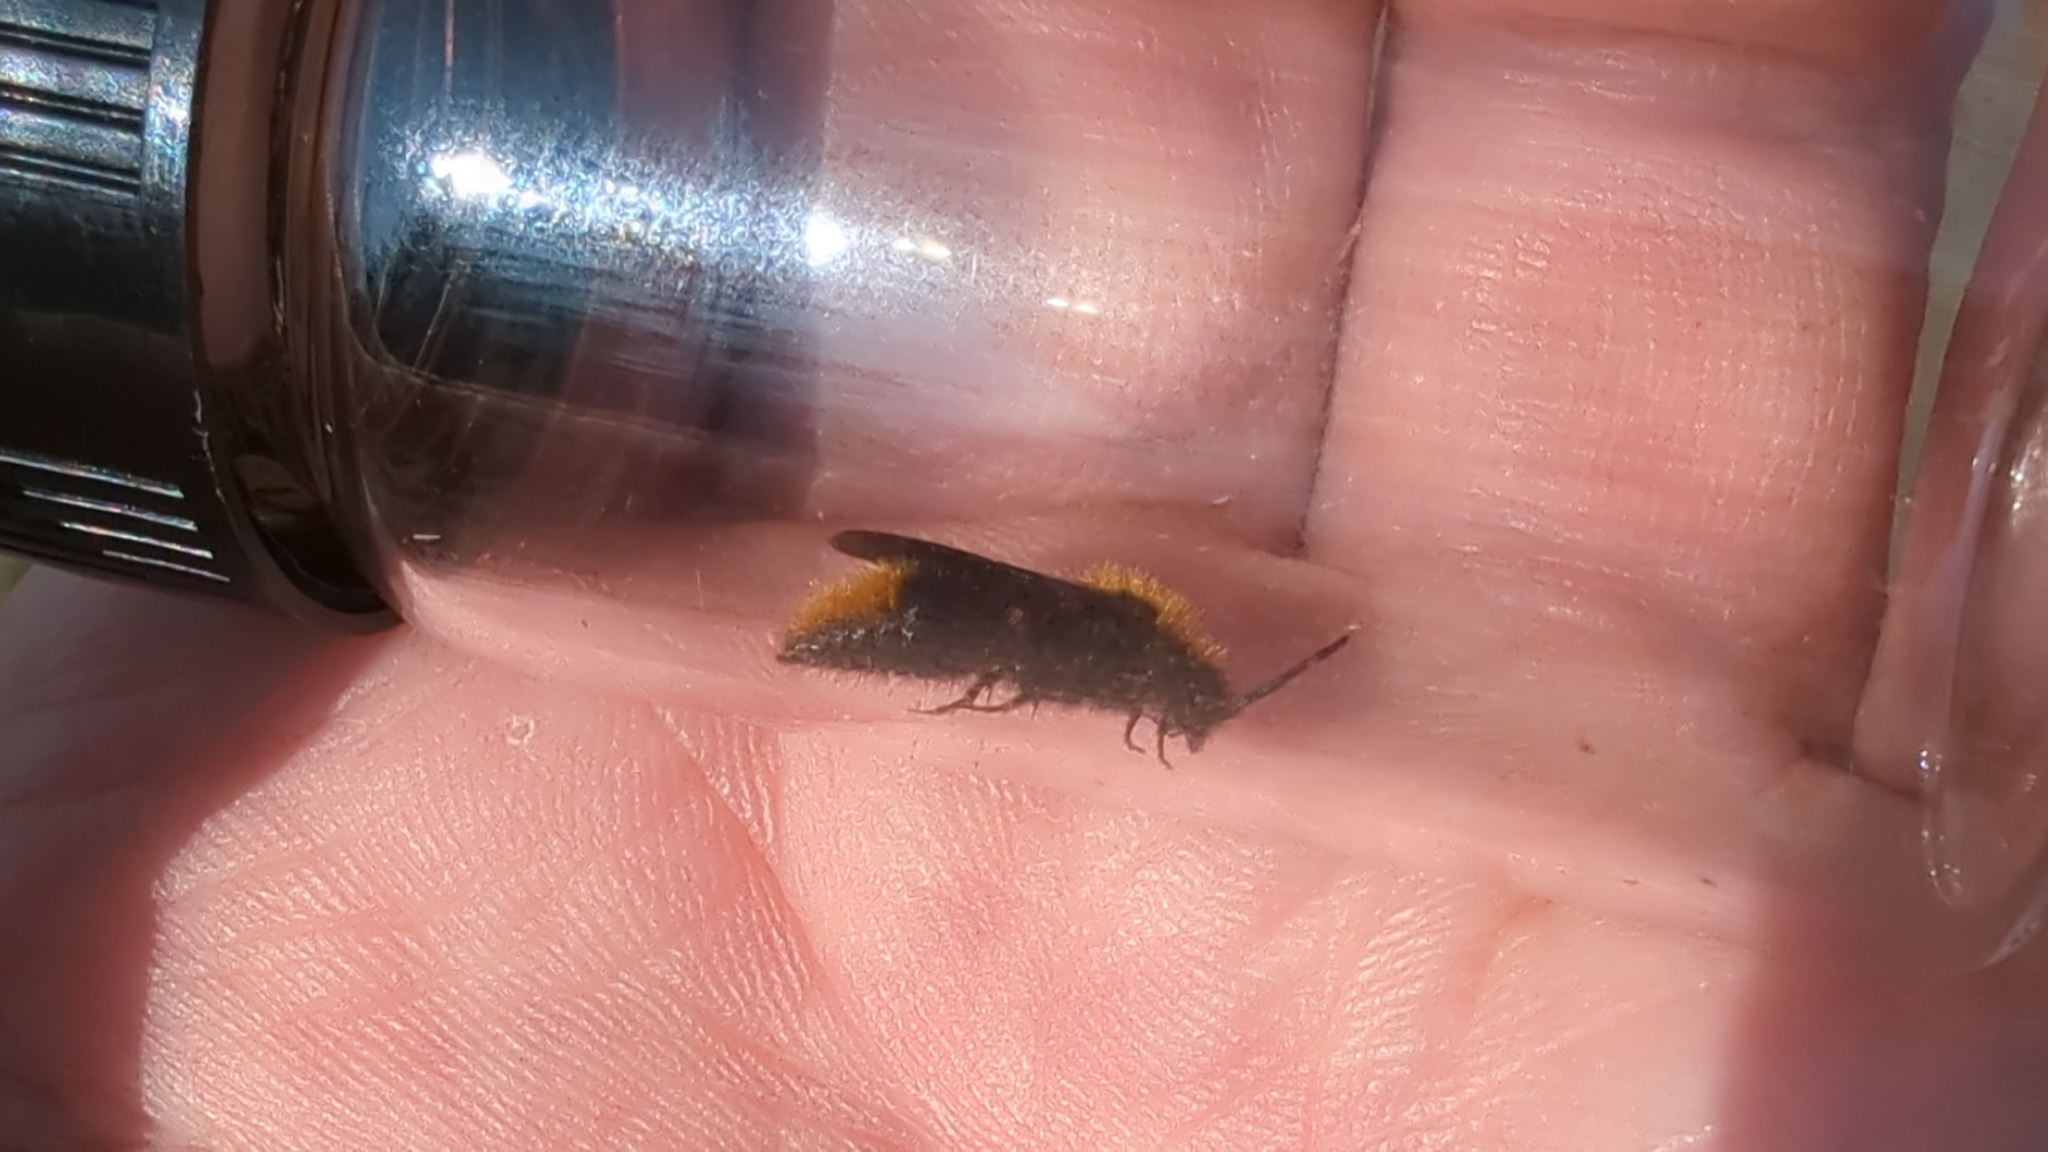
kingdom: Animalia
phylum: Arthropoda
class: Insecta
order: Hymenoptera
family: Mutillidae
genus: Dasymutilla
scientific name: Dasymutilla
